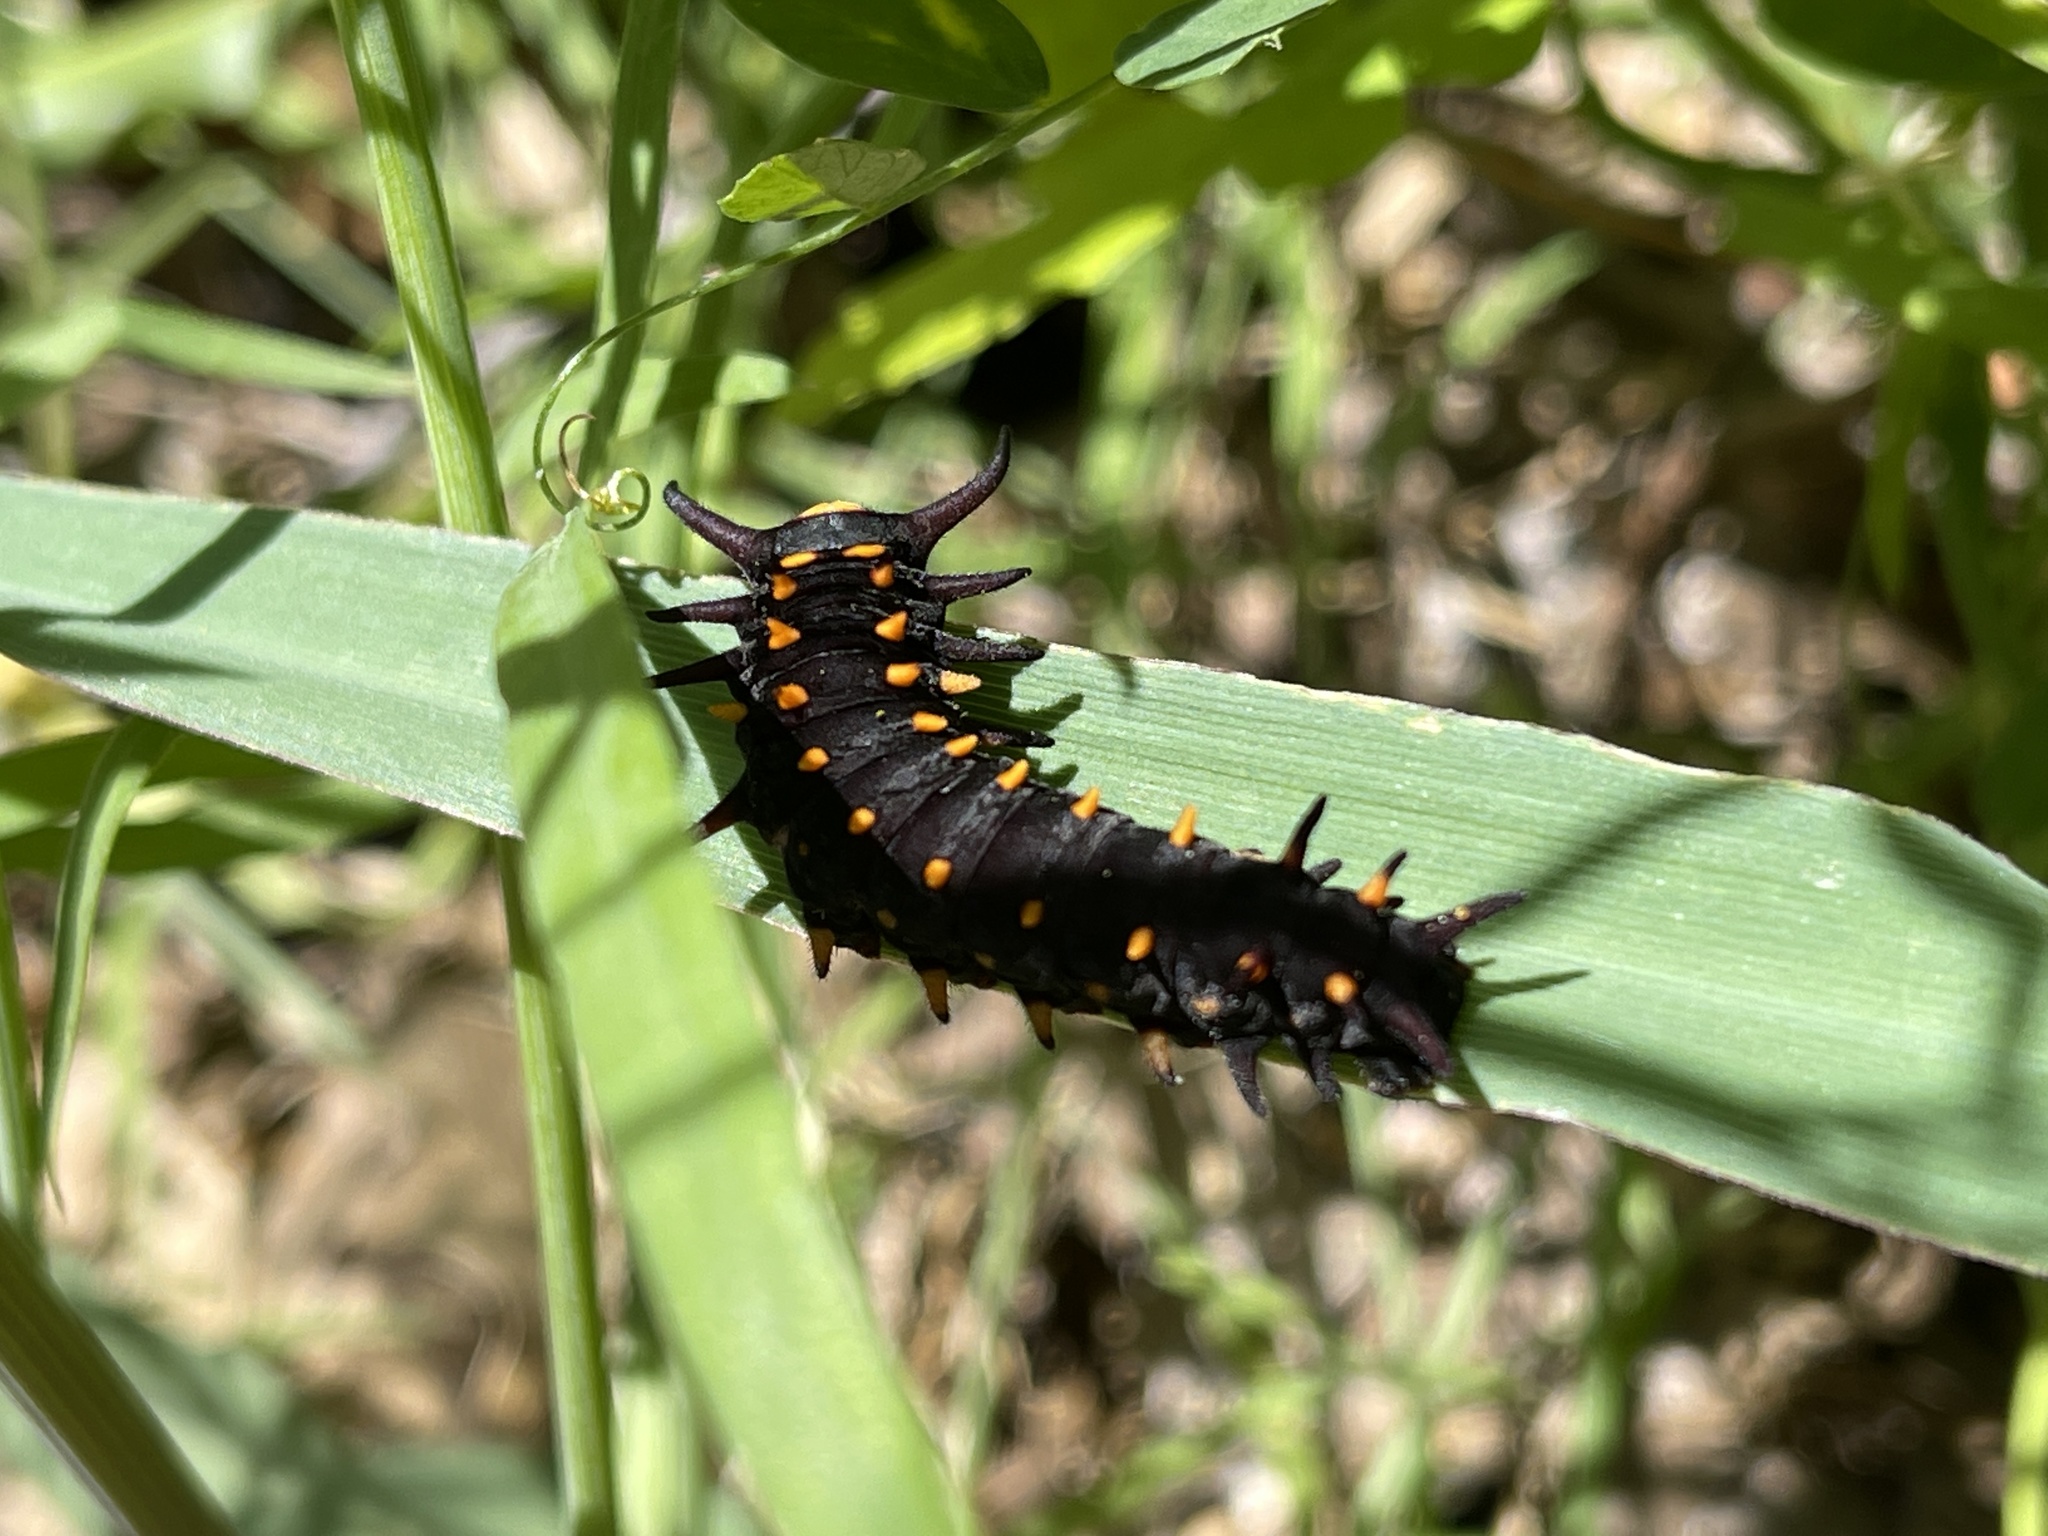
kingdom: Animalia
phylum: Arthropoda
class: Insecta
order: Lepidoptera
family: Papilionidae
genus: Battus
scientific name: Battus philenor
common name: Pipevine swallowtail
